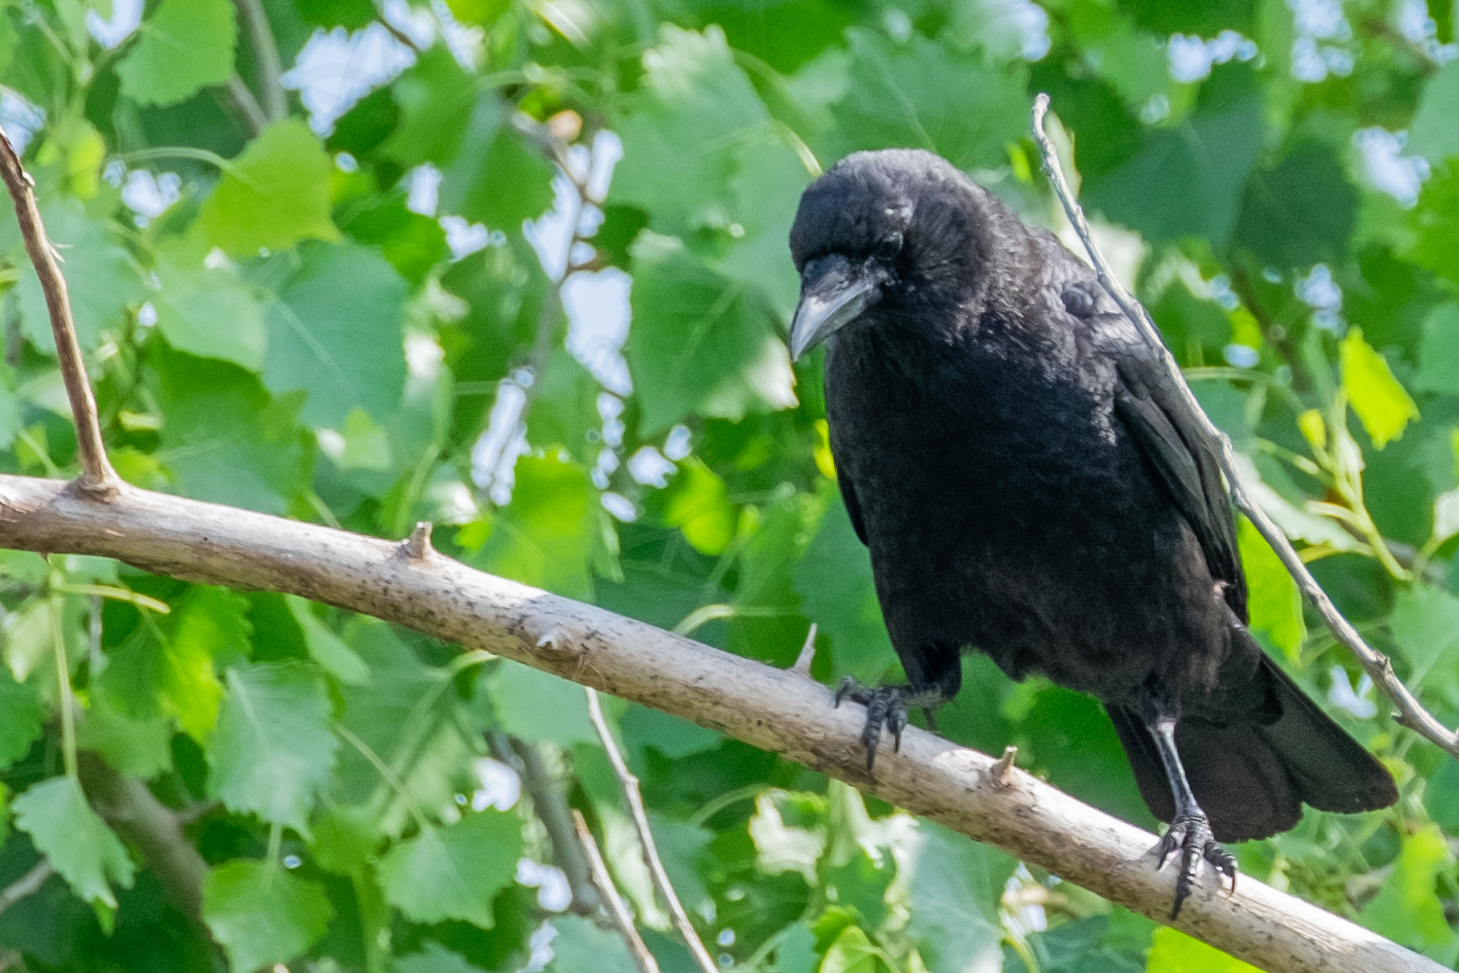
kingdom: Animalia
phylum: Chordata
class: Aves
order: Passeriformes
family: Corvidae
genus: Corvus
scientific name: Corvus brachyrhynchos
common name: American crow
